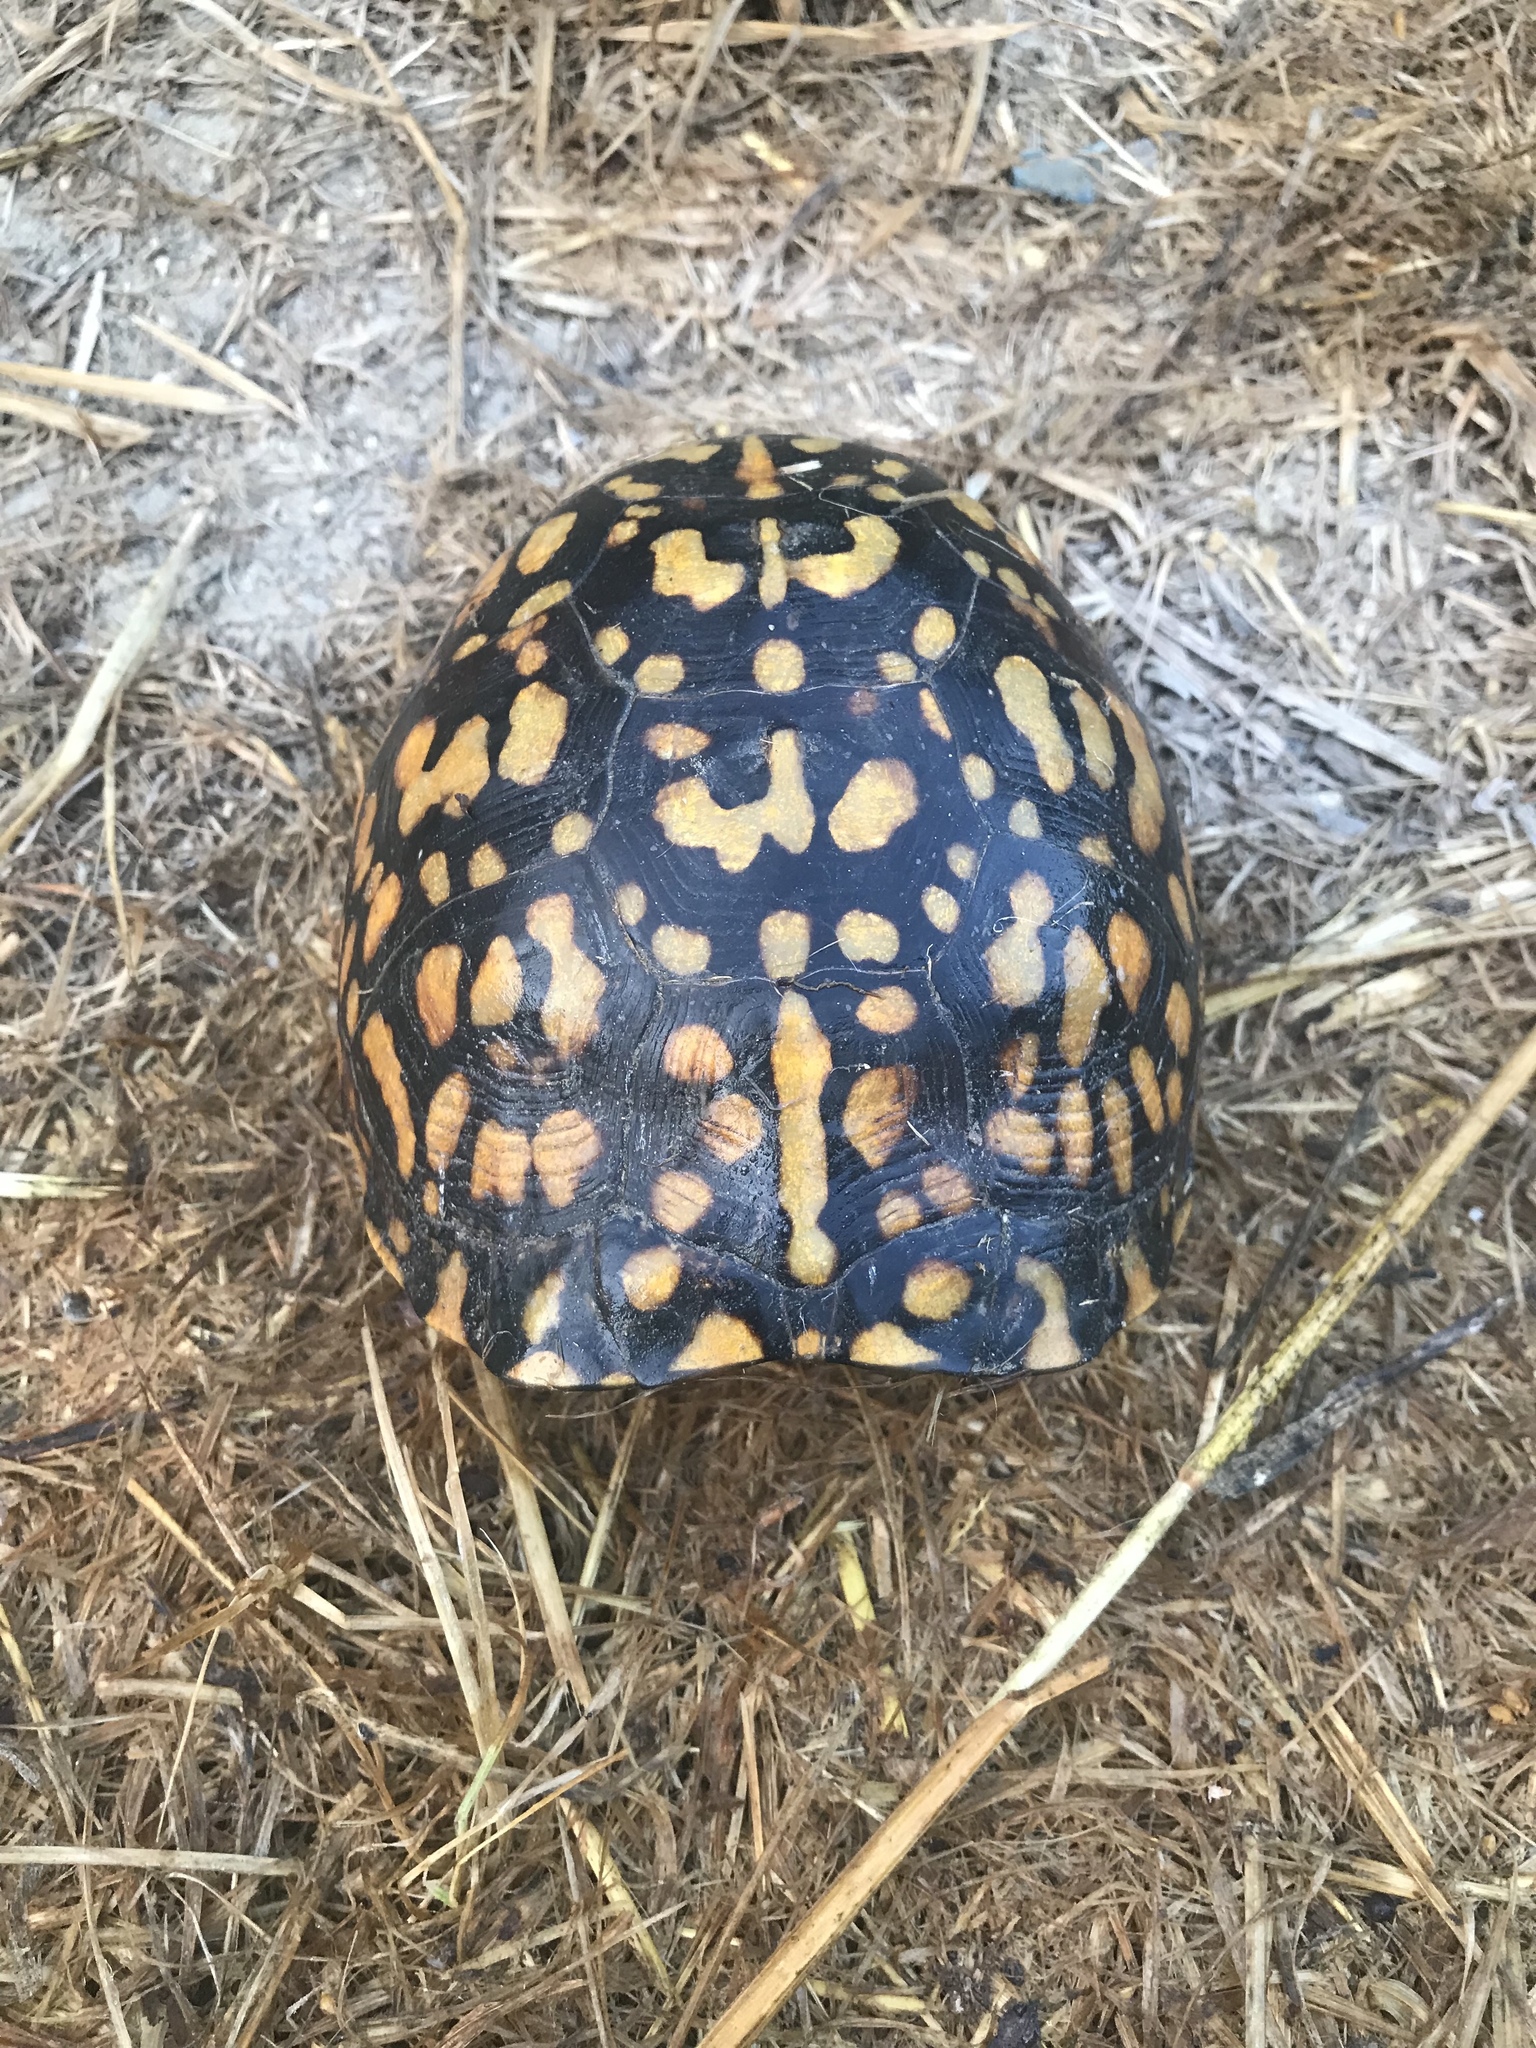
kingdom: Animalia
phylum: Chordata
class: Testudines
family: Emydidae
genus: Terrapene
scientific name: Terrapene carolina
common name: Common box turtle
